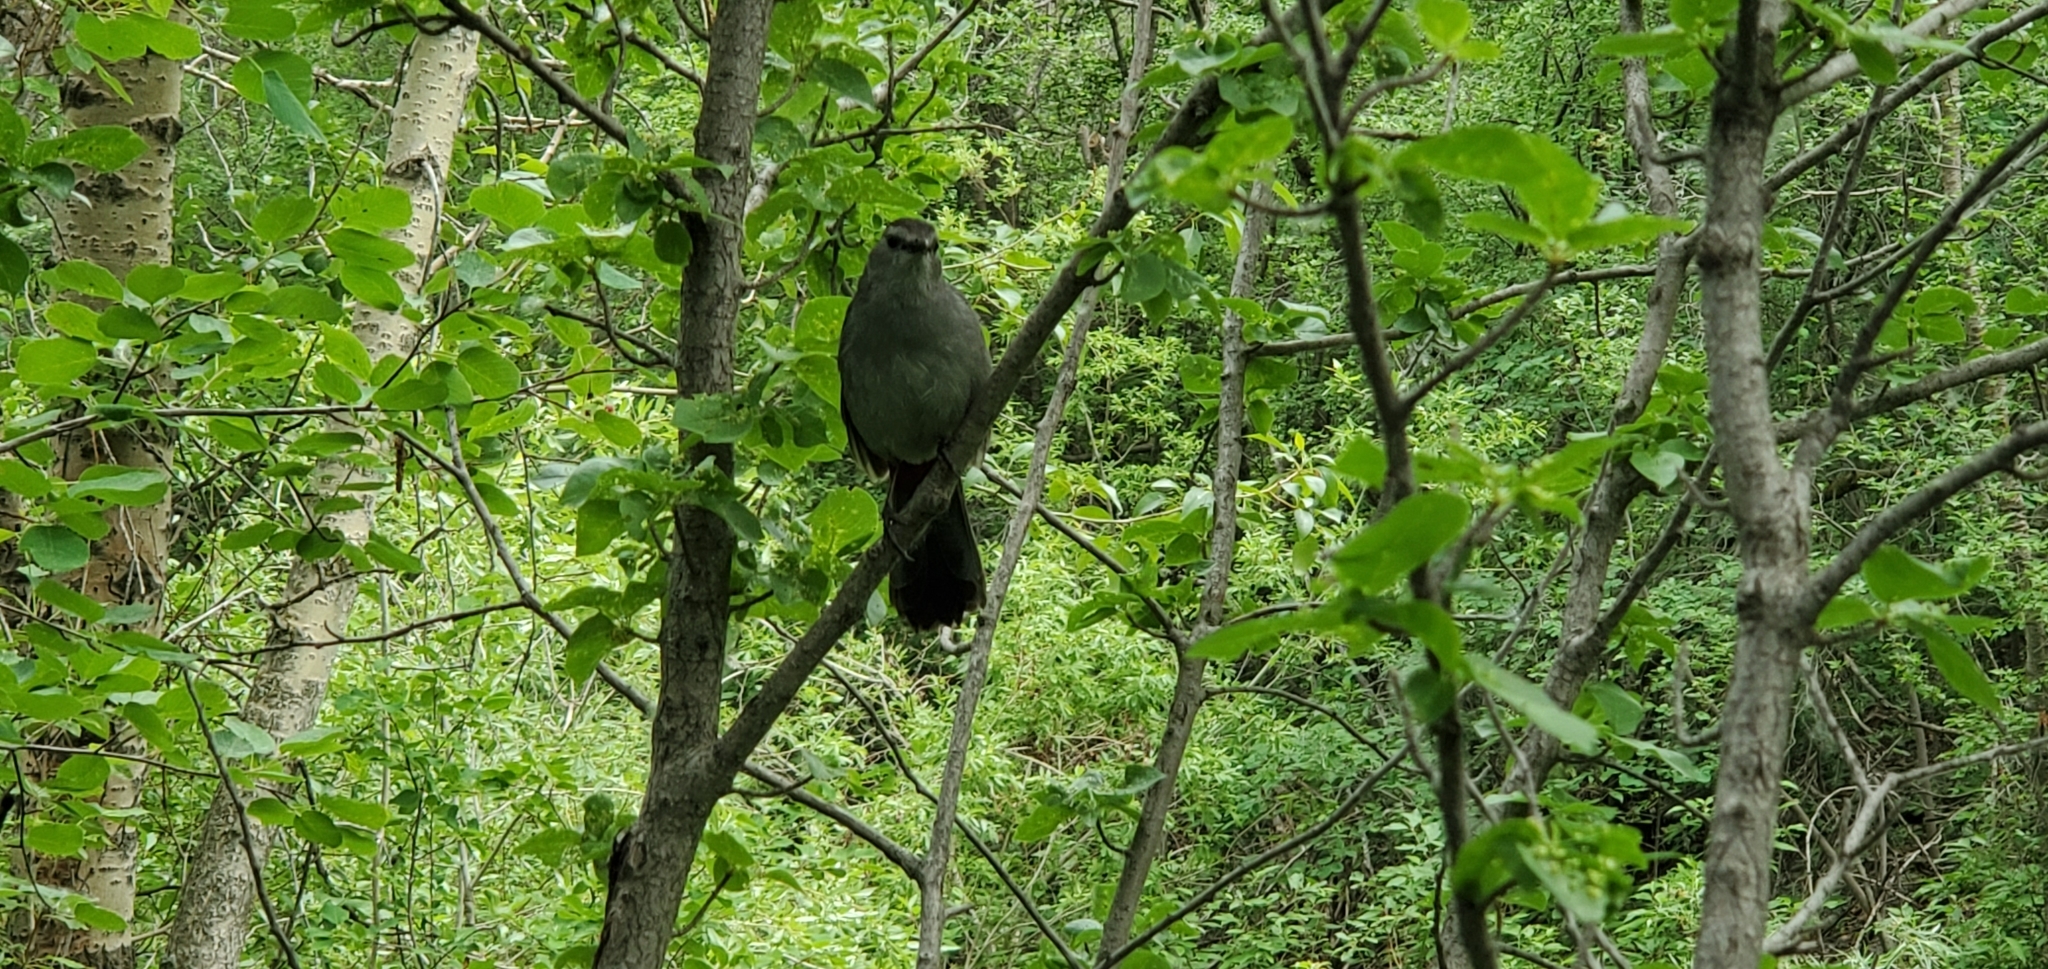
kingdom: Animalia
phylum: Chordata
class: Aves
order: Passeriformes
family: Mimidae
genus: Dumetella
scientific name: Dumetella carolinensis
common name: Gray catbird
